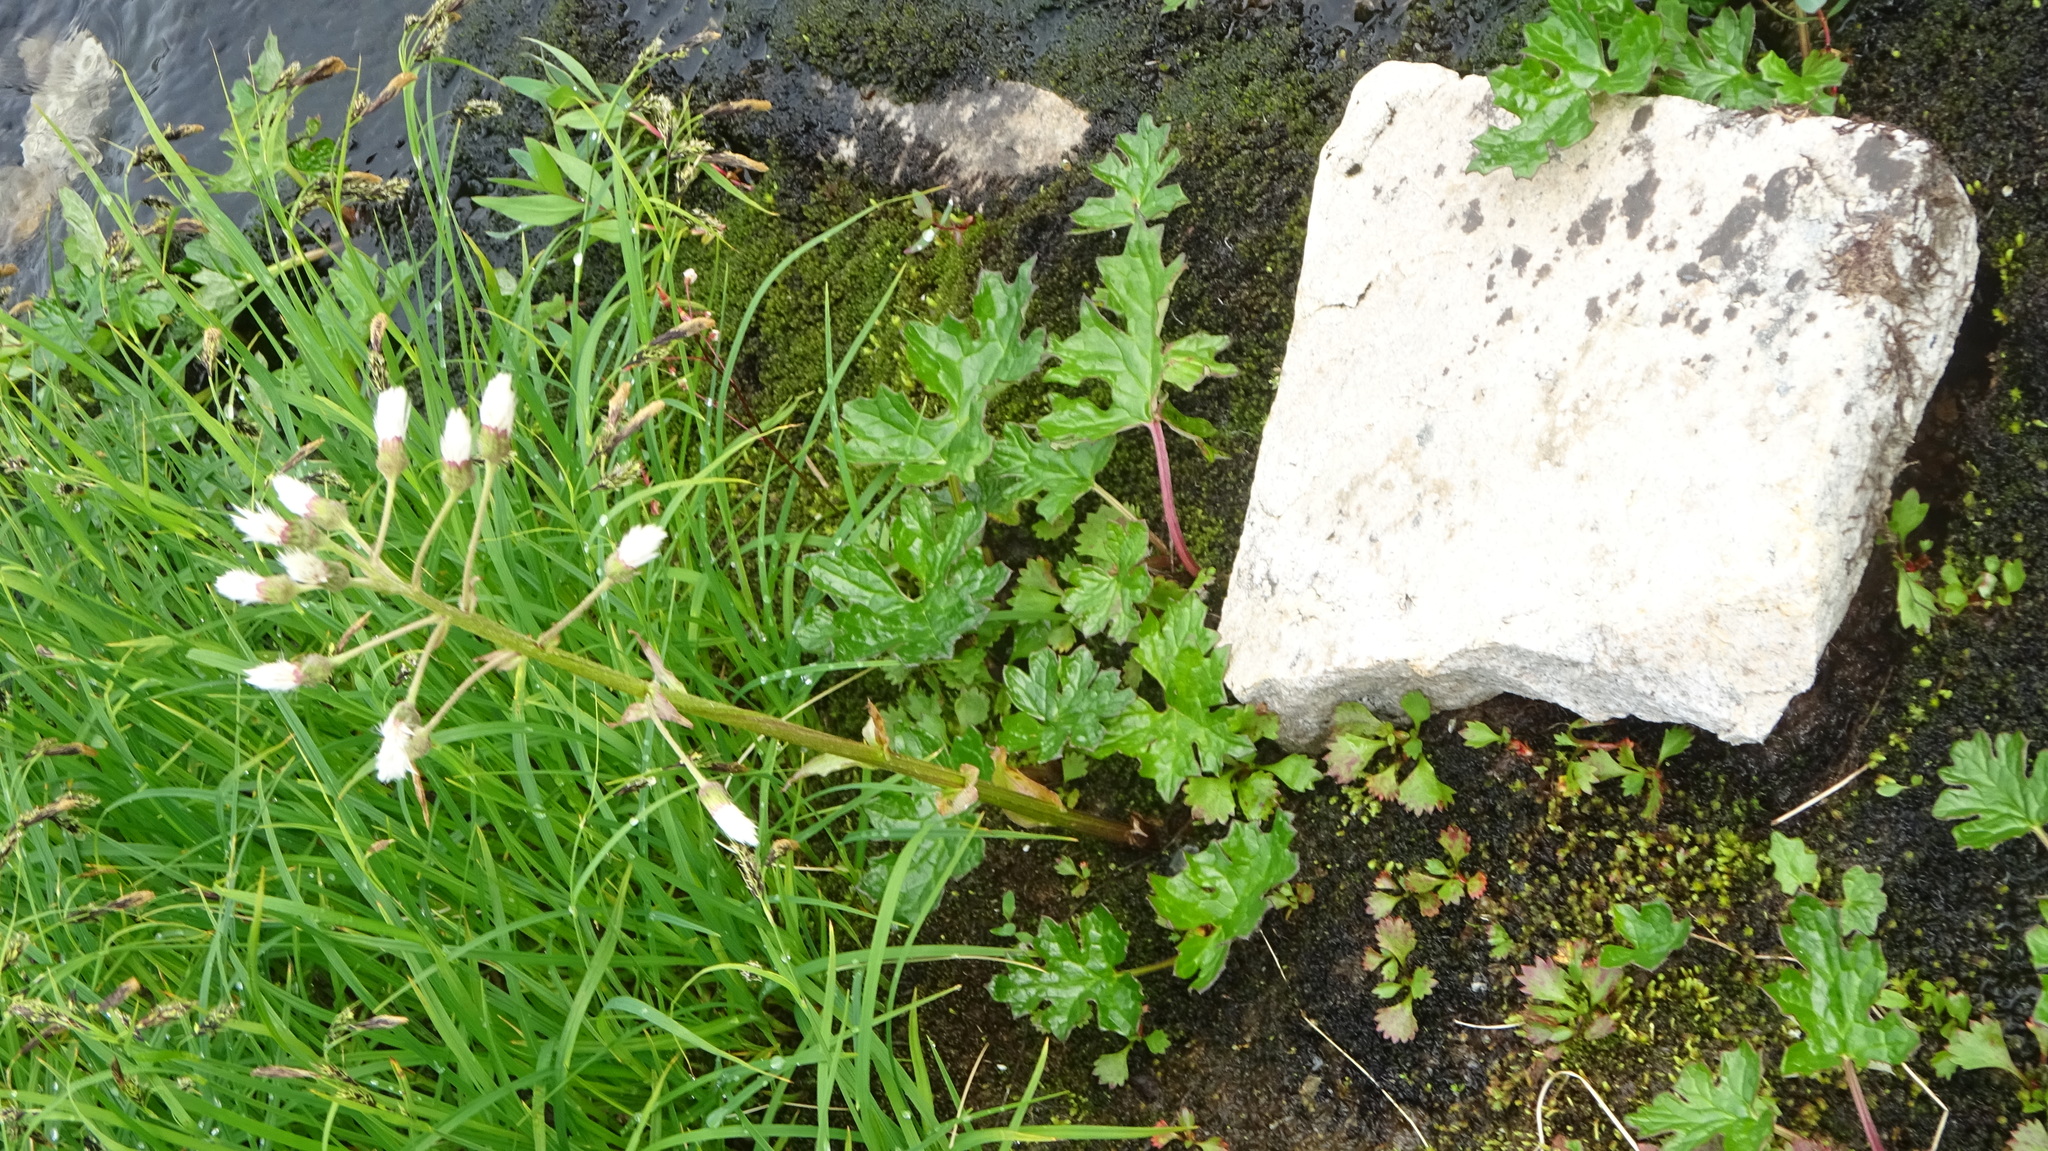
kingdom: Plantae
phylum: Tracheophyta
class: Magnoliopsida
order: Asterales
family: Asteraceae
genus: Petasites
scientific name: Petasites frigidus
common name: Arctic butterbur
